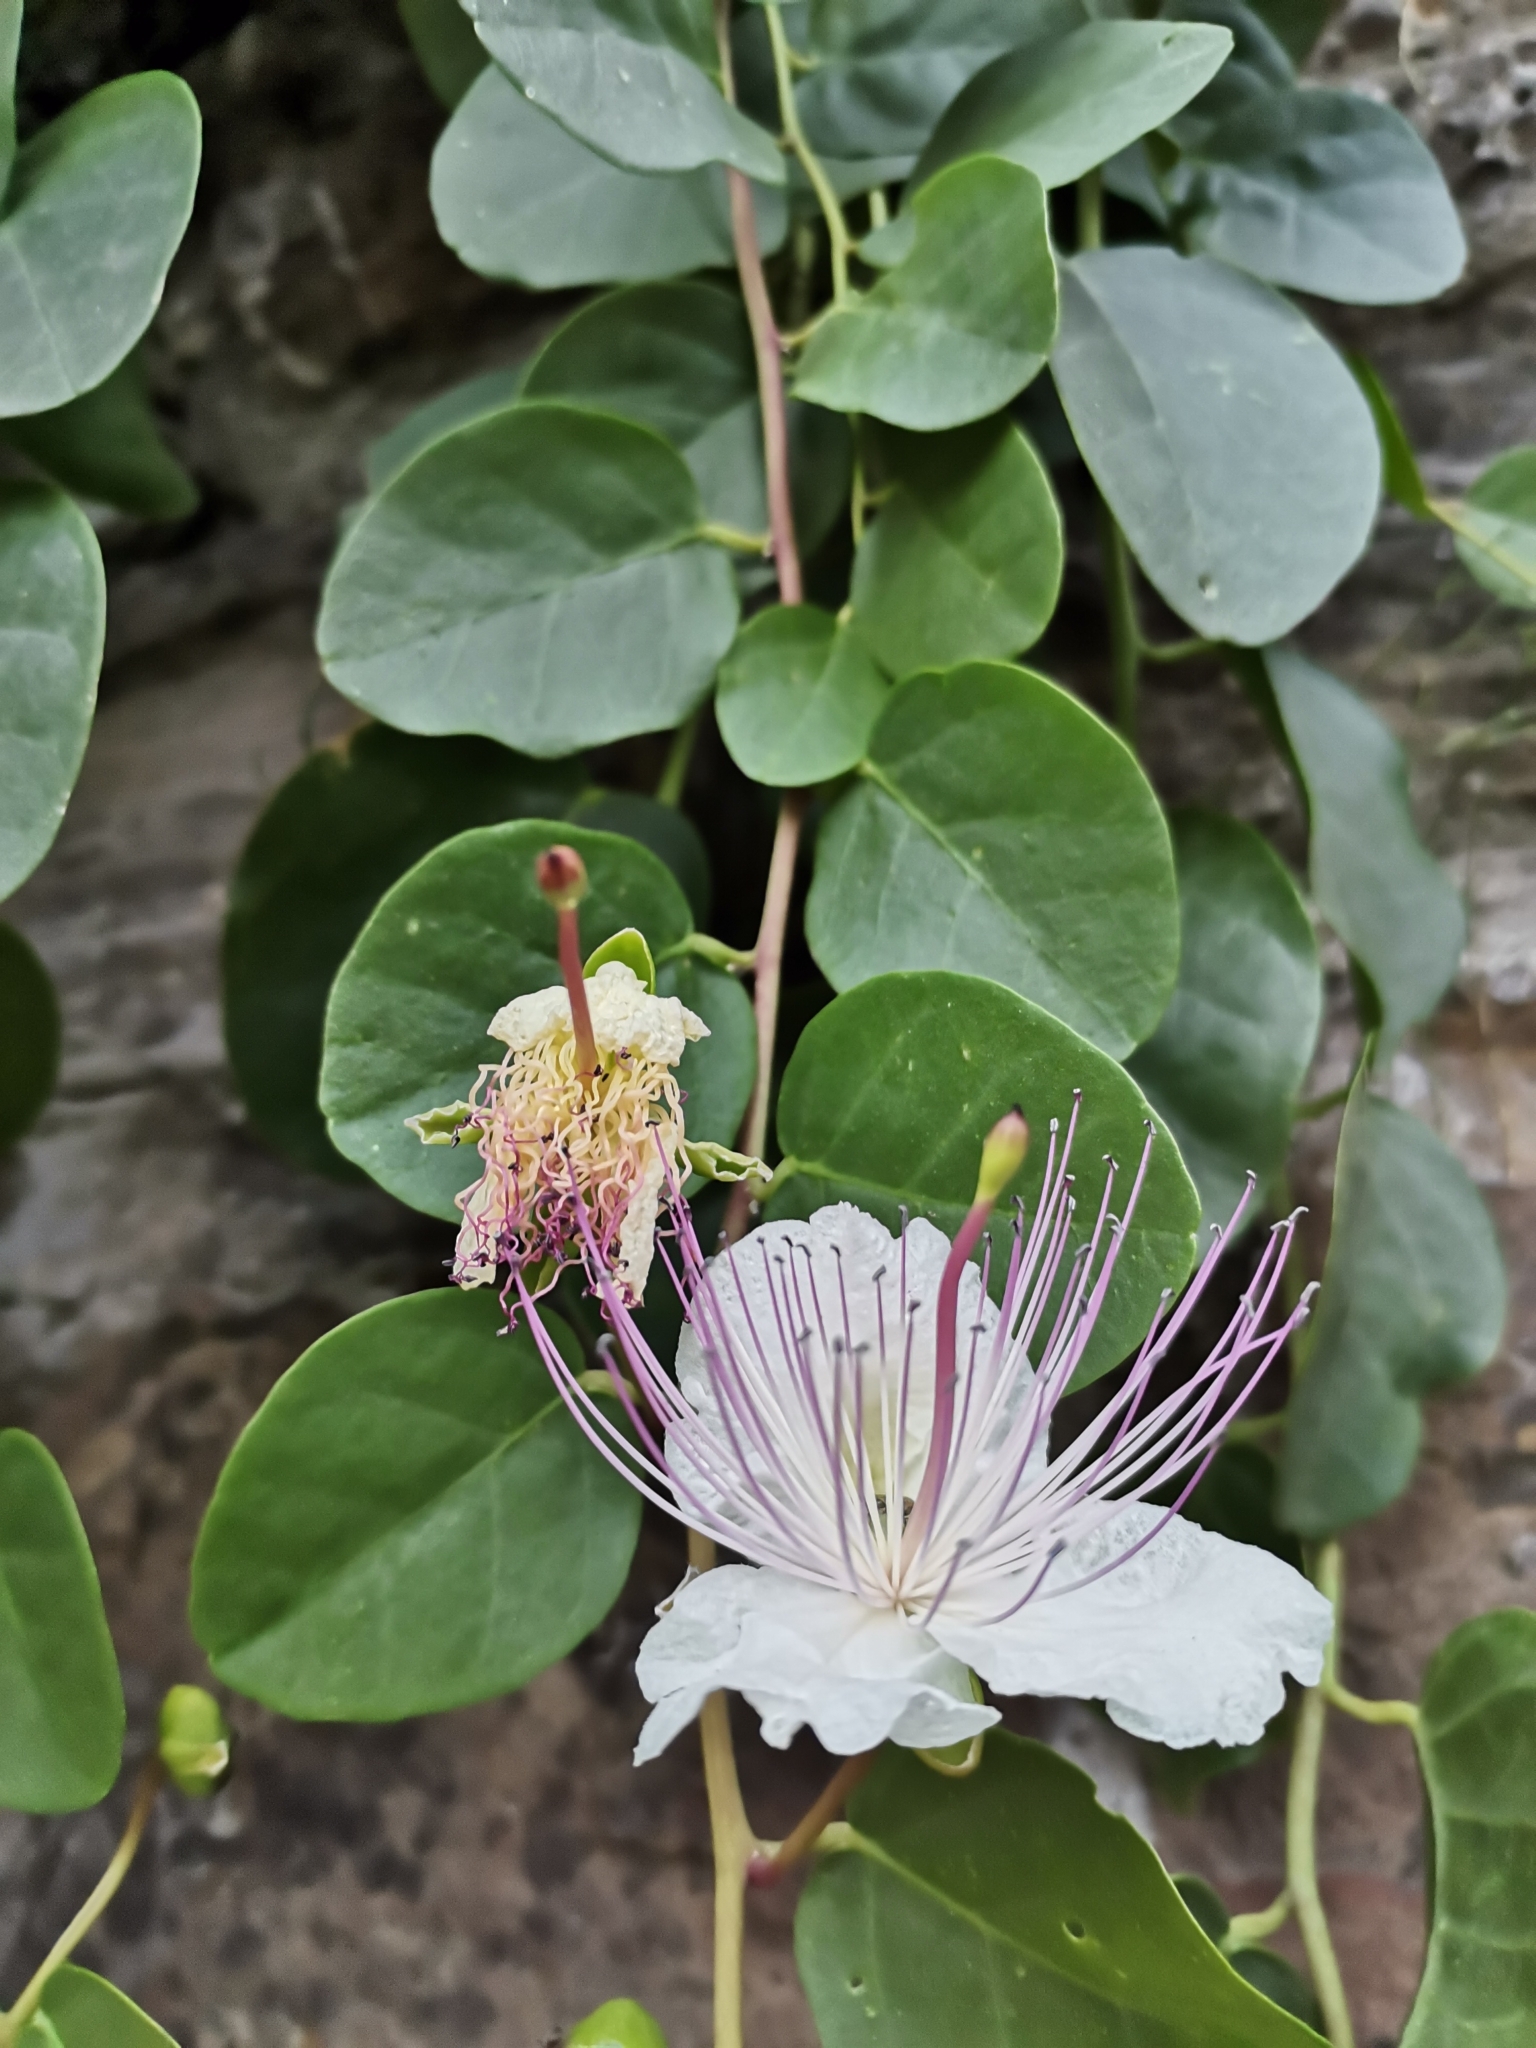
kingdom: Plantae
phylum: Tracheophyta
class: Magnoliopsida
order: Brassicales
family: Capparaceae
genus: Capparis
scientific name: Capparis spinosa
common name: Caper
